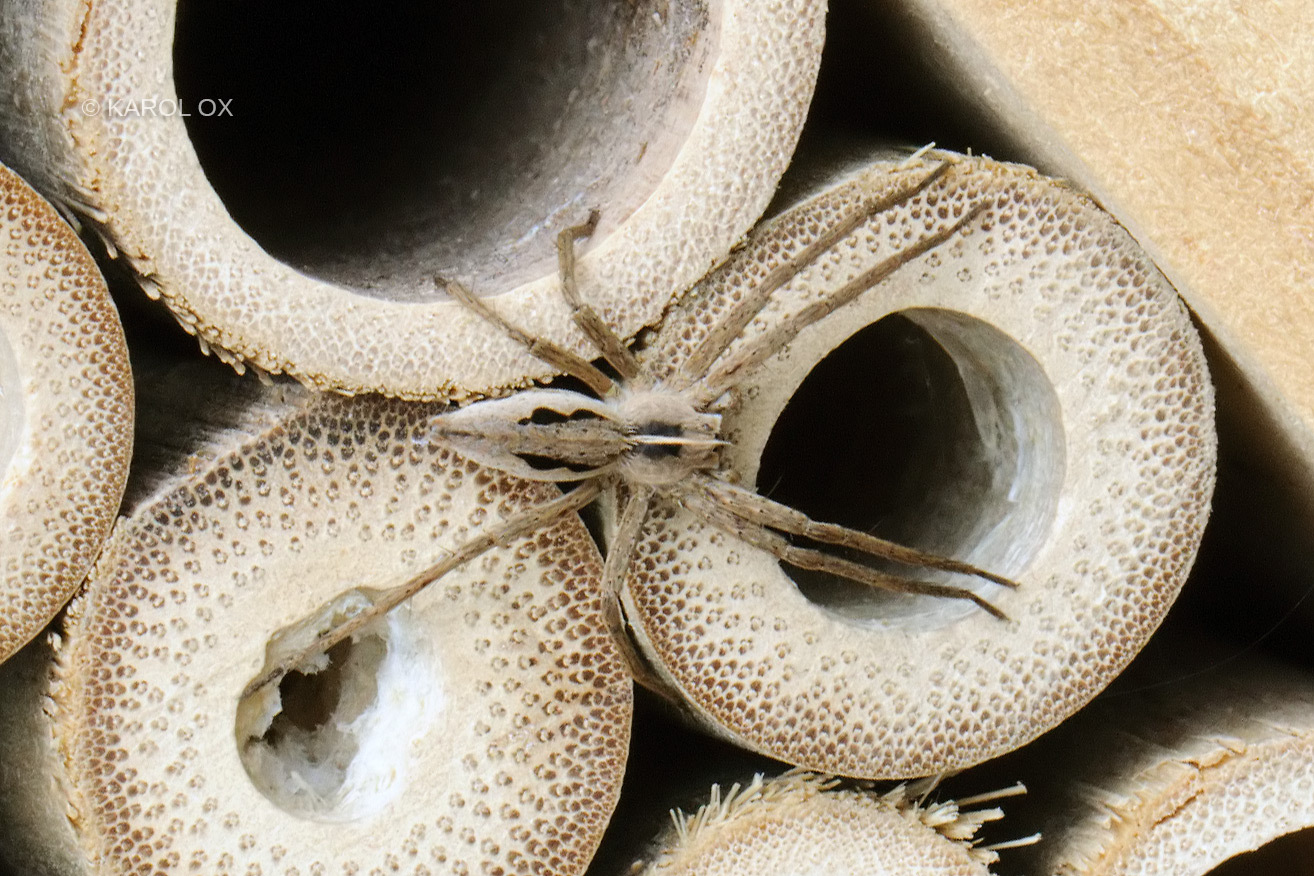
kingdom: Animalia
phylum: Arthropoda
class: Arachnida
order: Araneae
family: Pisauridae
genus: Pisaura
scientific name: Pisaura mirabilis
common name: Tent spider
